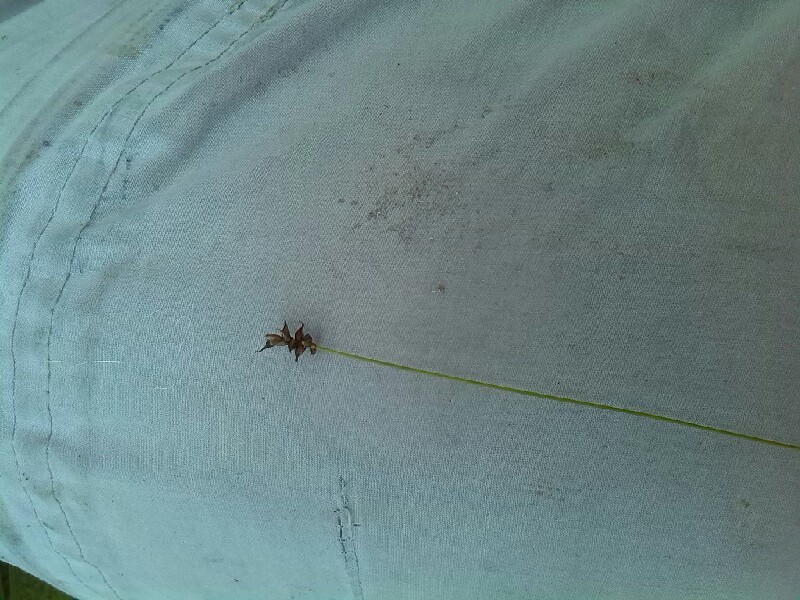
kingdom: Plantae
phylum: Tracheophyta
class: Liliopsida
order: Poales
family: Cyperaceae
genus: Carex
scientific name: Carex dioica
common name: Dioecious sedge
